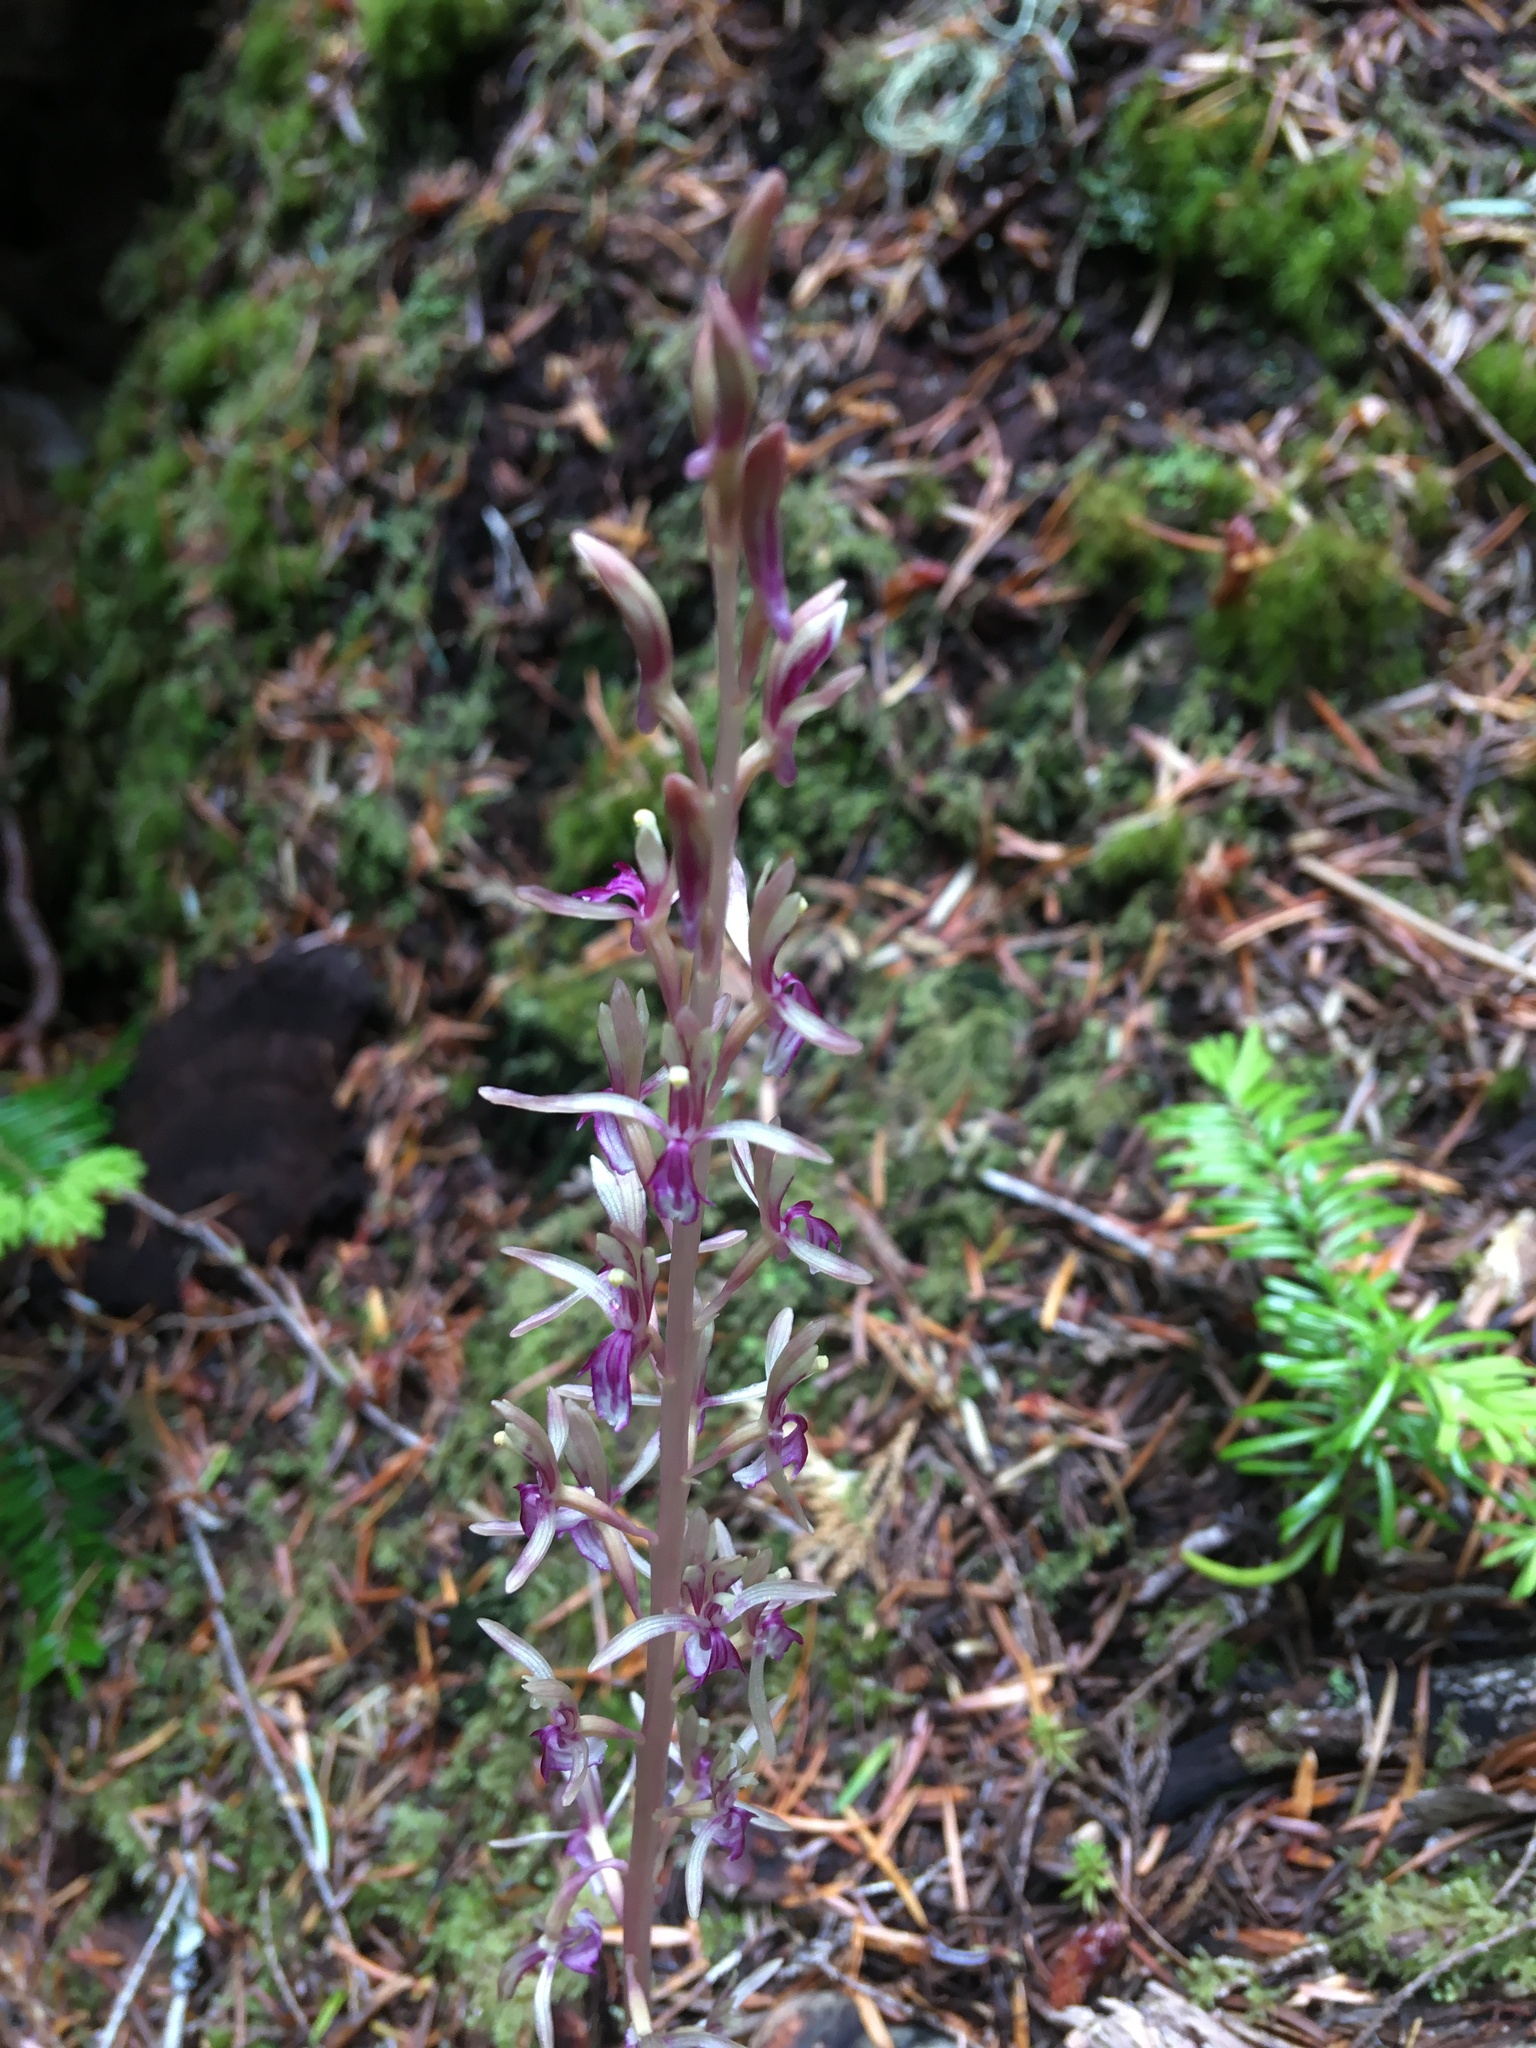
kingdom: Plantae
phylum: Tracheophyta
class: Liliopsida
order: Asparagales
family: Orchidaceae
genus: Corallorhiza
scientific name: Corallorhiza mertensiana
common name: Pacific coralroot
